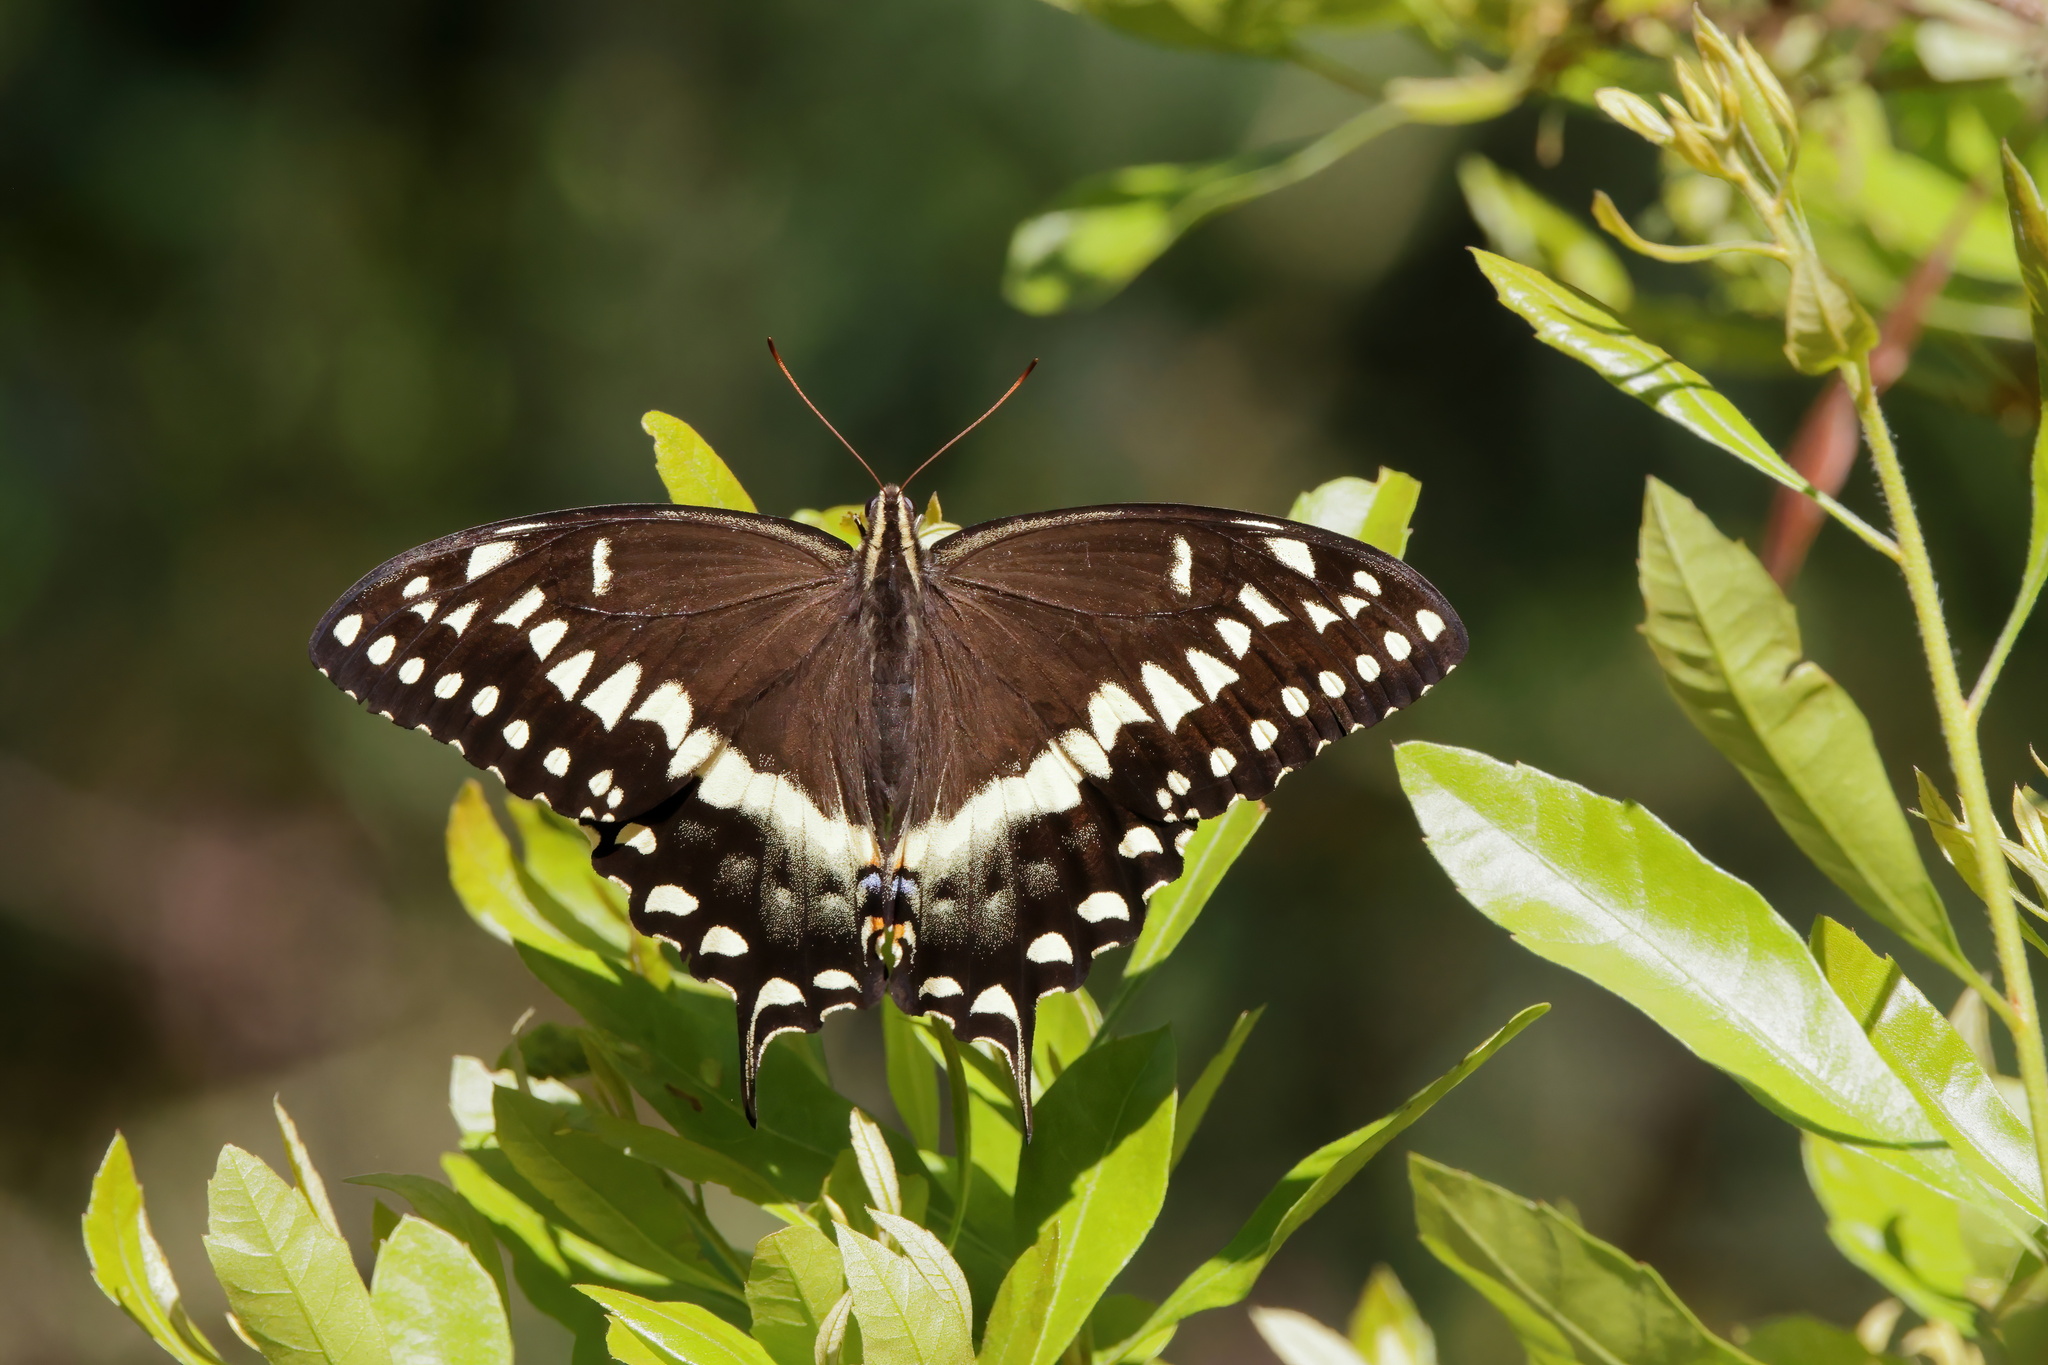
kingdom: Animalia
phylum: Arthropoda
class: Insecta
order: Lepidoptera
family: Papilionidae
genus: Papilio
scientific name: Papilio palamedes
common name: Palamedes swallowtail
